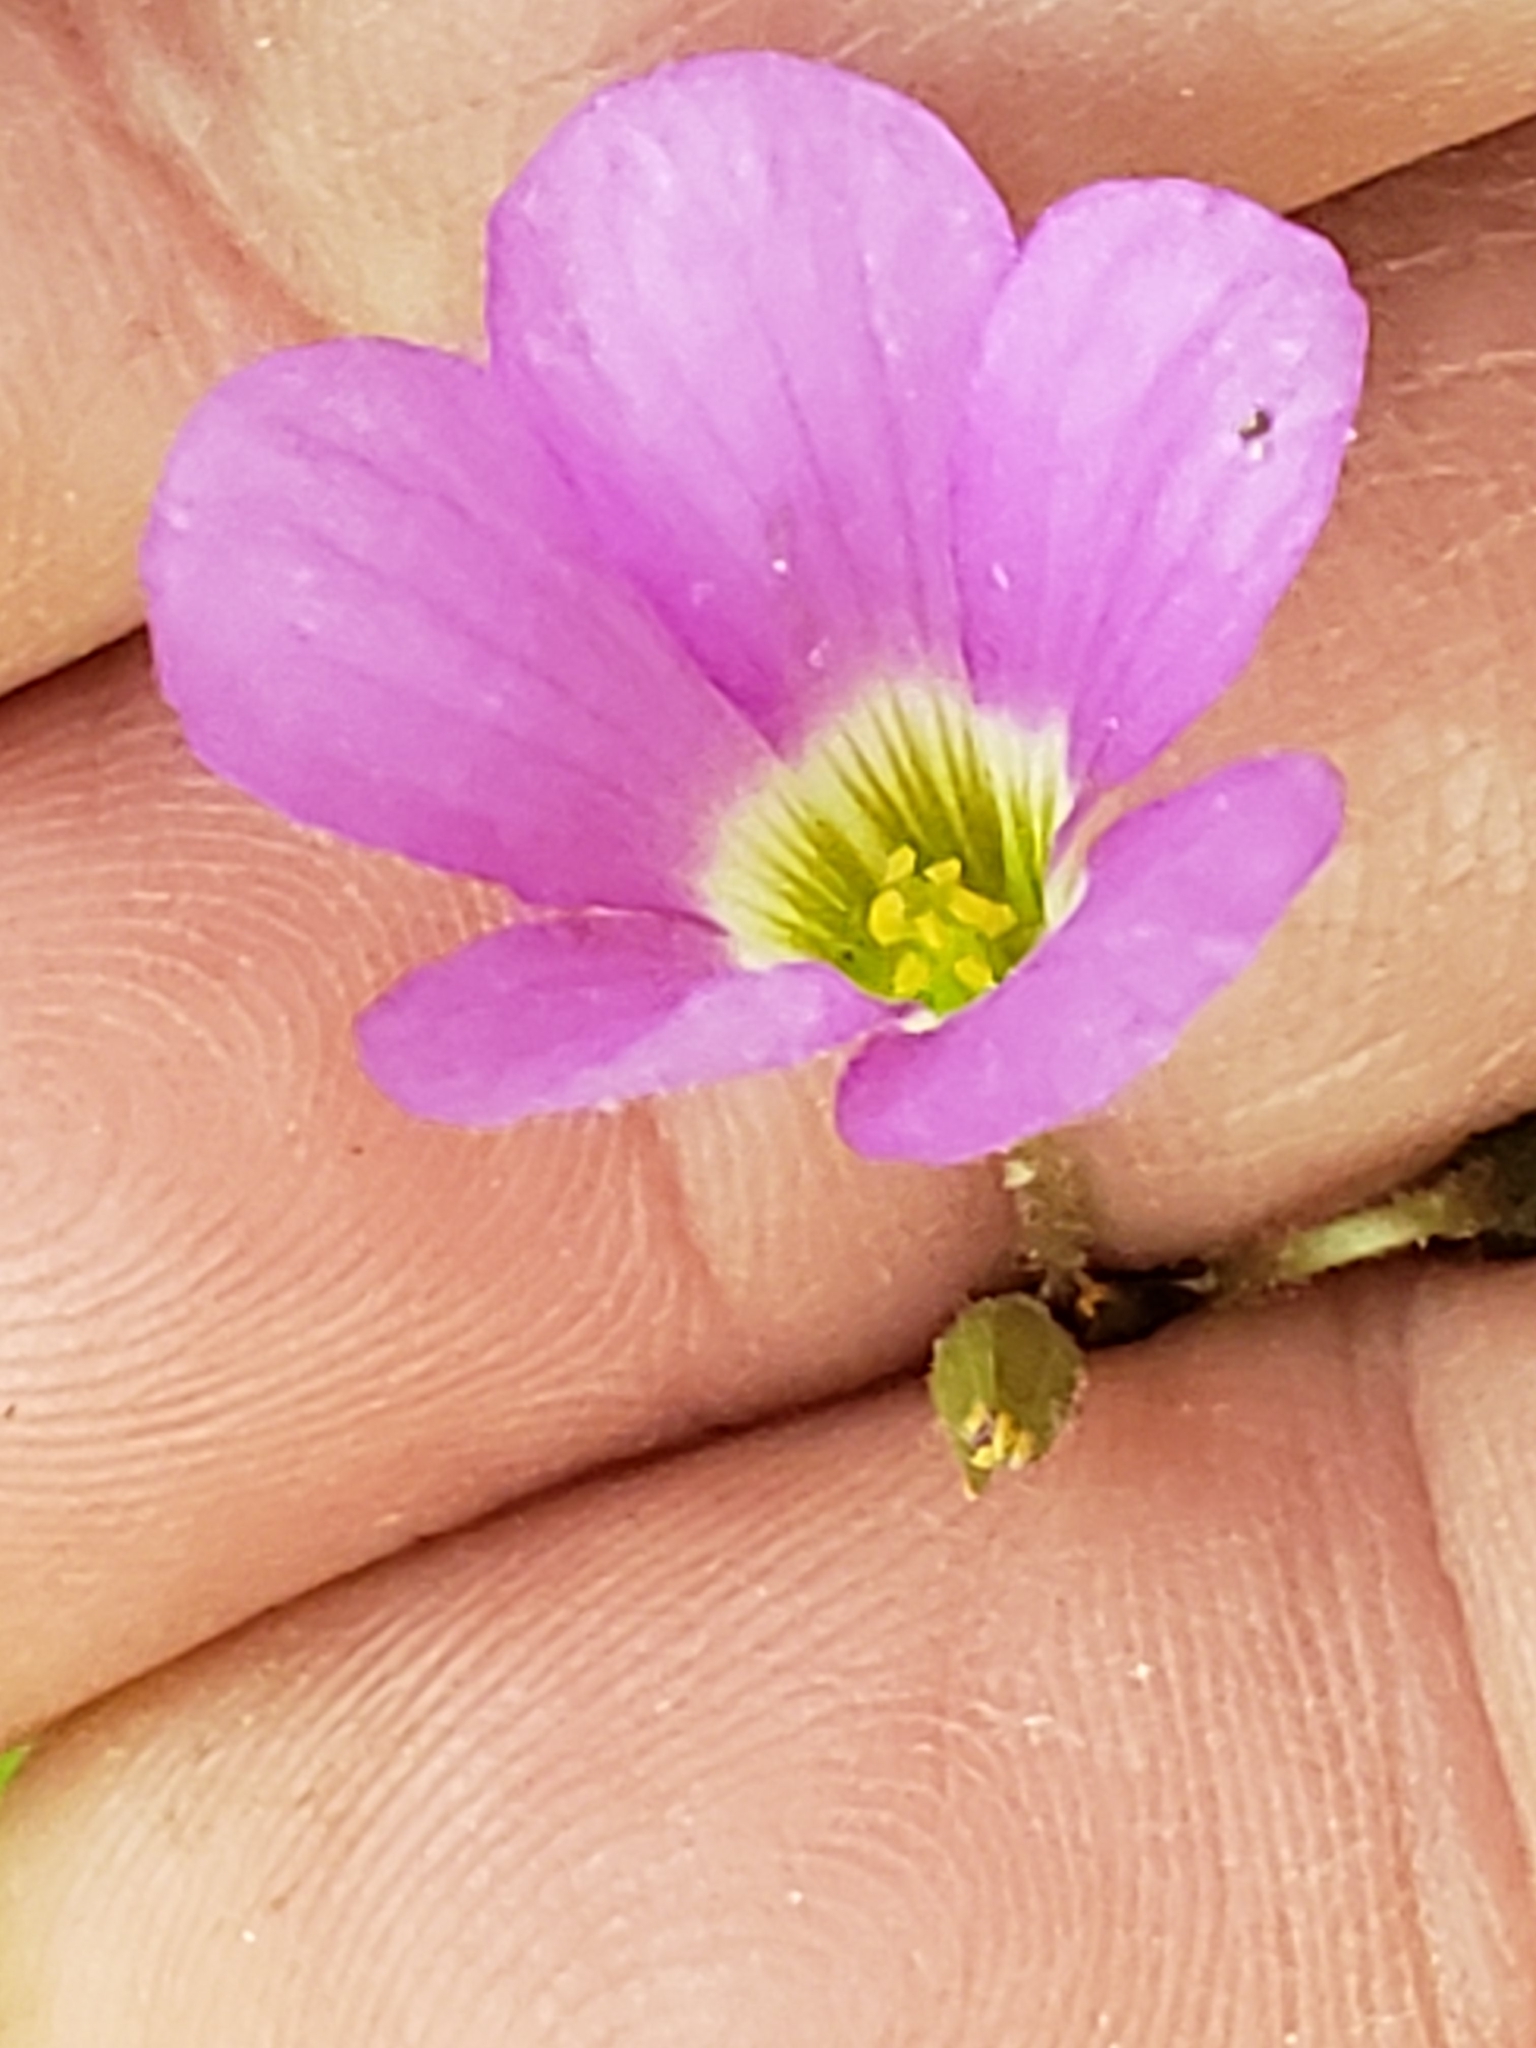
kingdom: Plantae
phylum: Tracheophyta
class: Magnoliopsida
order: Oxalidales
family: Oxalidaceae
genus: Oxalis
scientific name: Oxalis violacea
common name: Violet wood-sorrel
